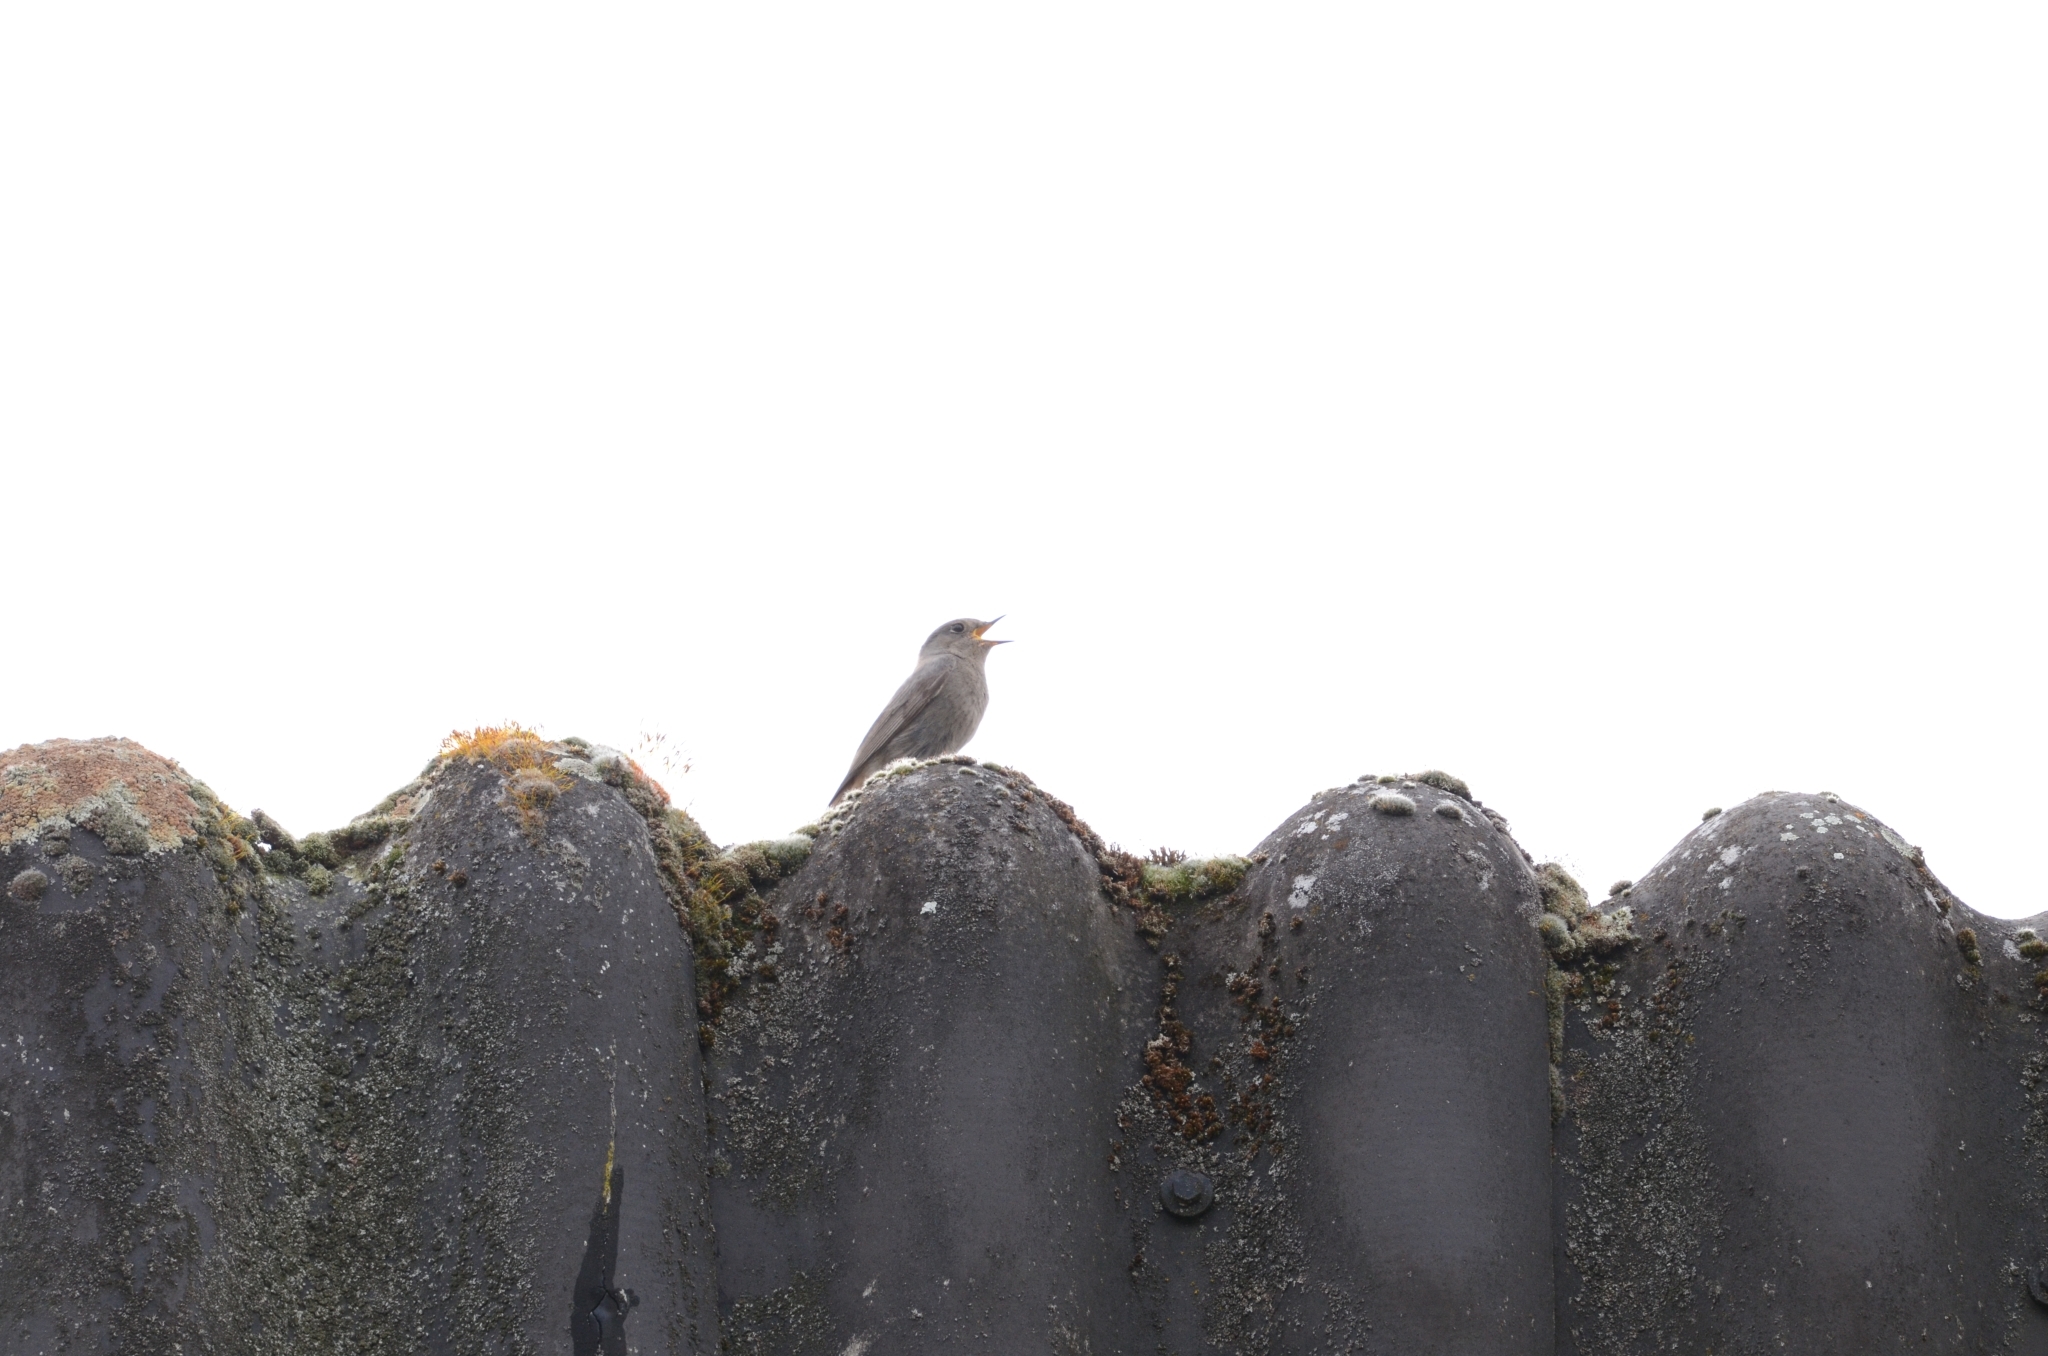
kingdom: Animalia
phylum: Chordata
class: Aves
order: Passeriformes
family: Muscicapidae
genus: Phoenicurus
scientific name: Phoenicurus ochruros
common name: Black redstart
